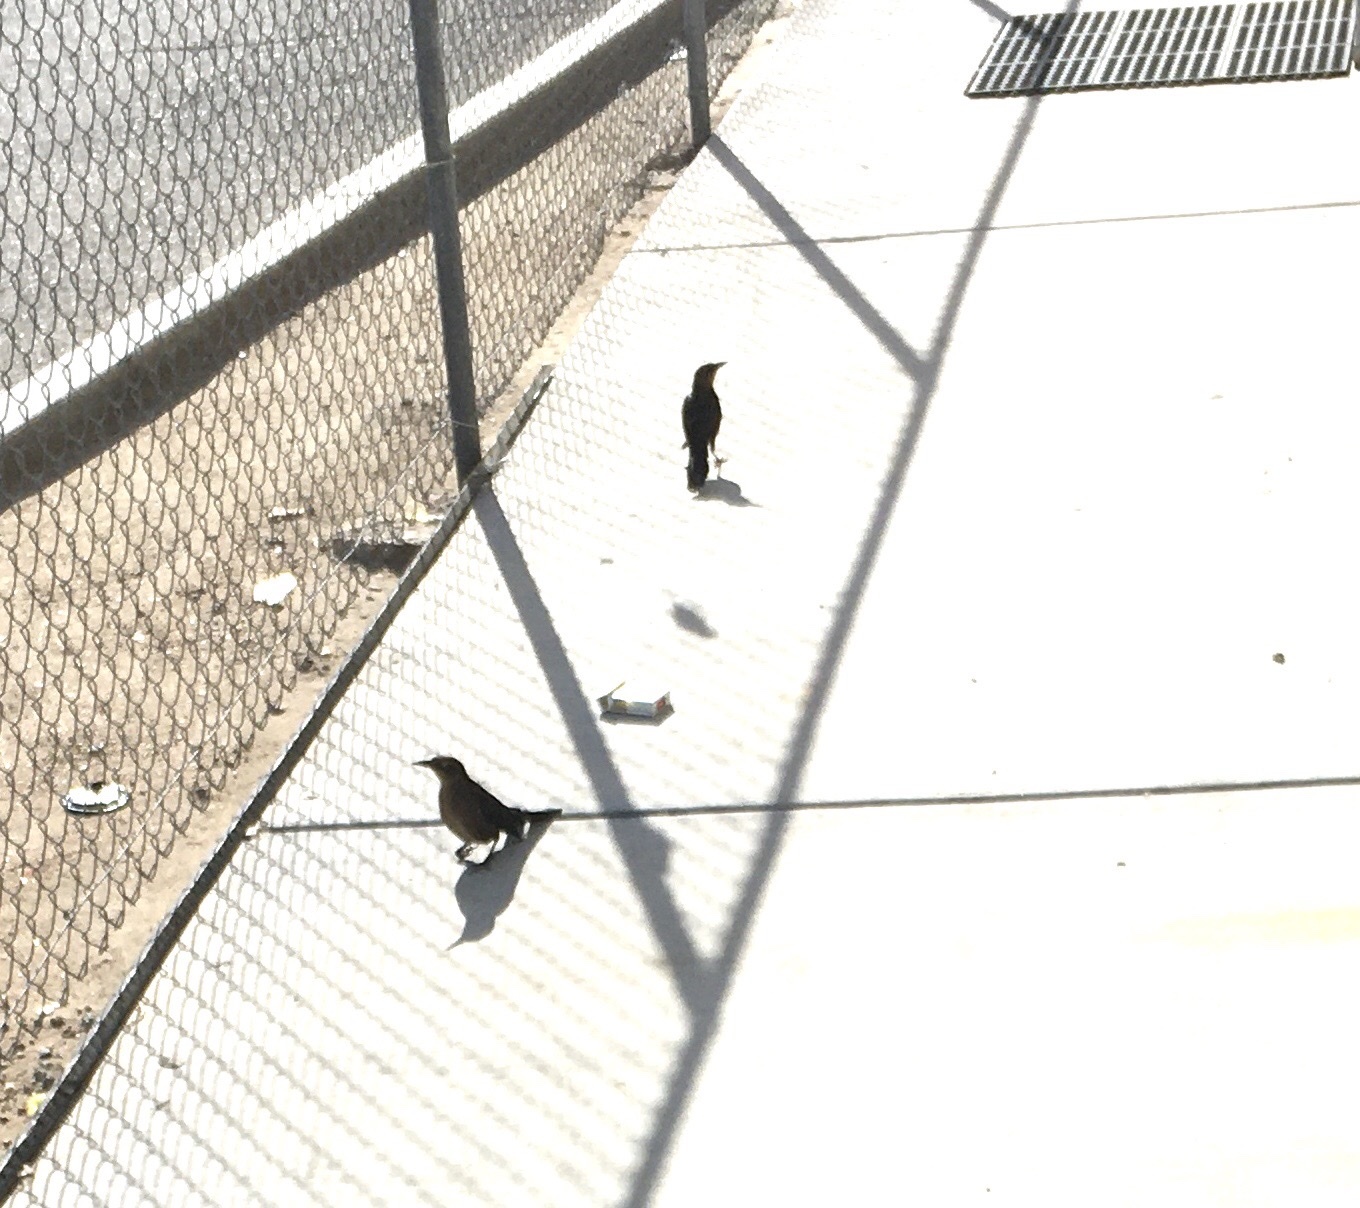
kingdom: Animalia
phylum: Chordata
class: Aves
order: Passeriformes
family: Icteridae
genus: Quiscalus
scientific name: Quiscalus mexicanus
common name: Great-tailed grackle
